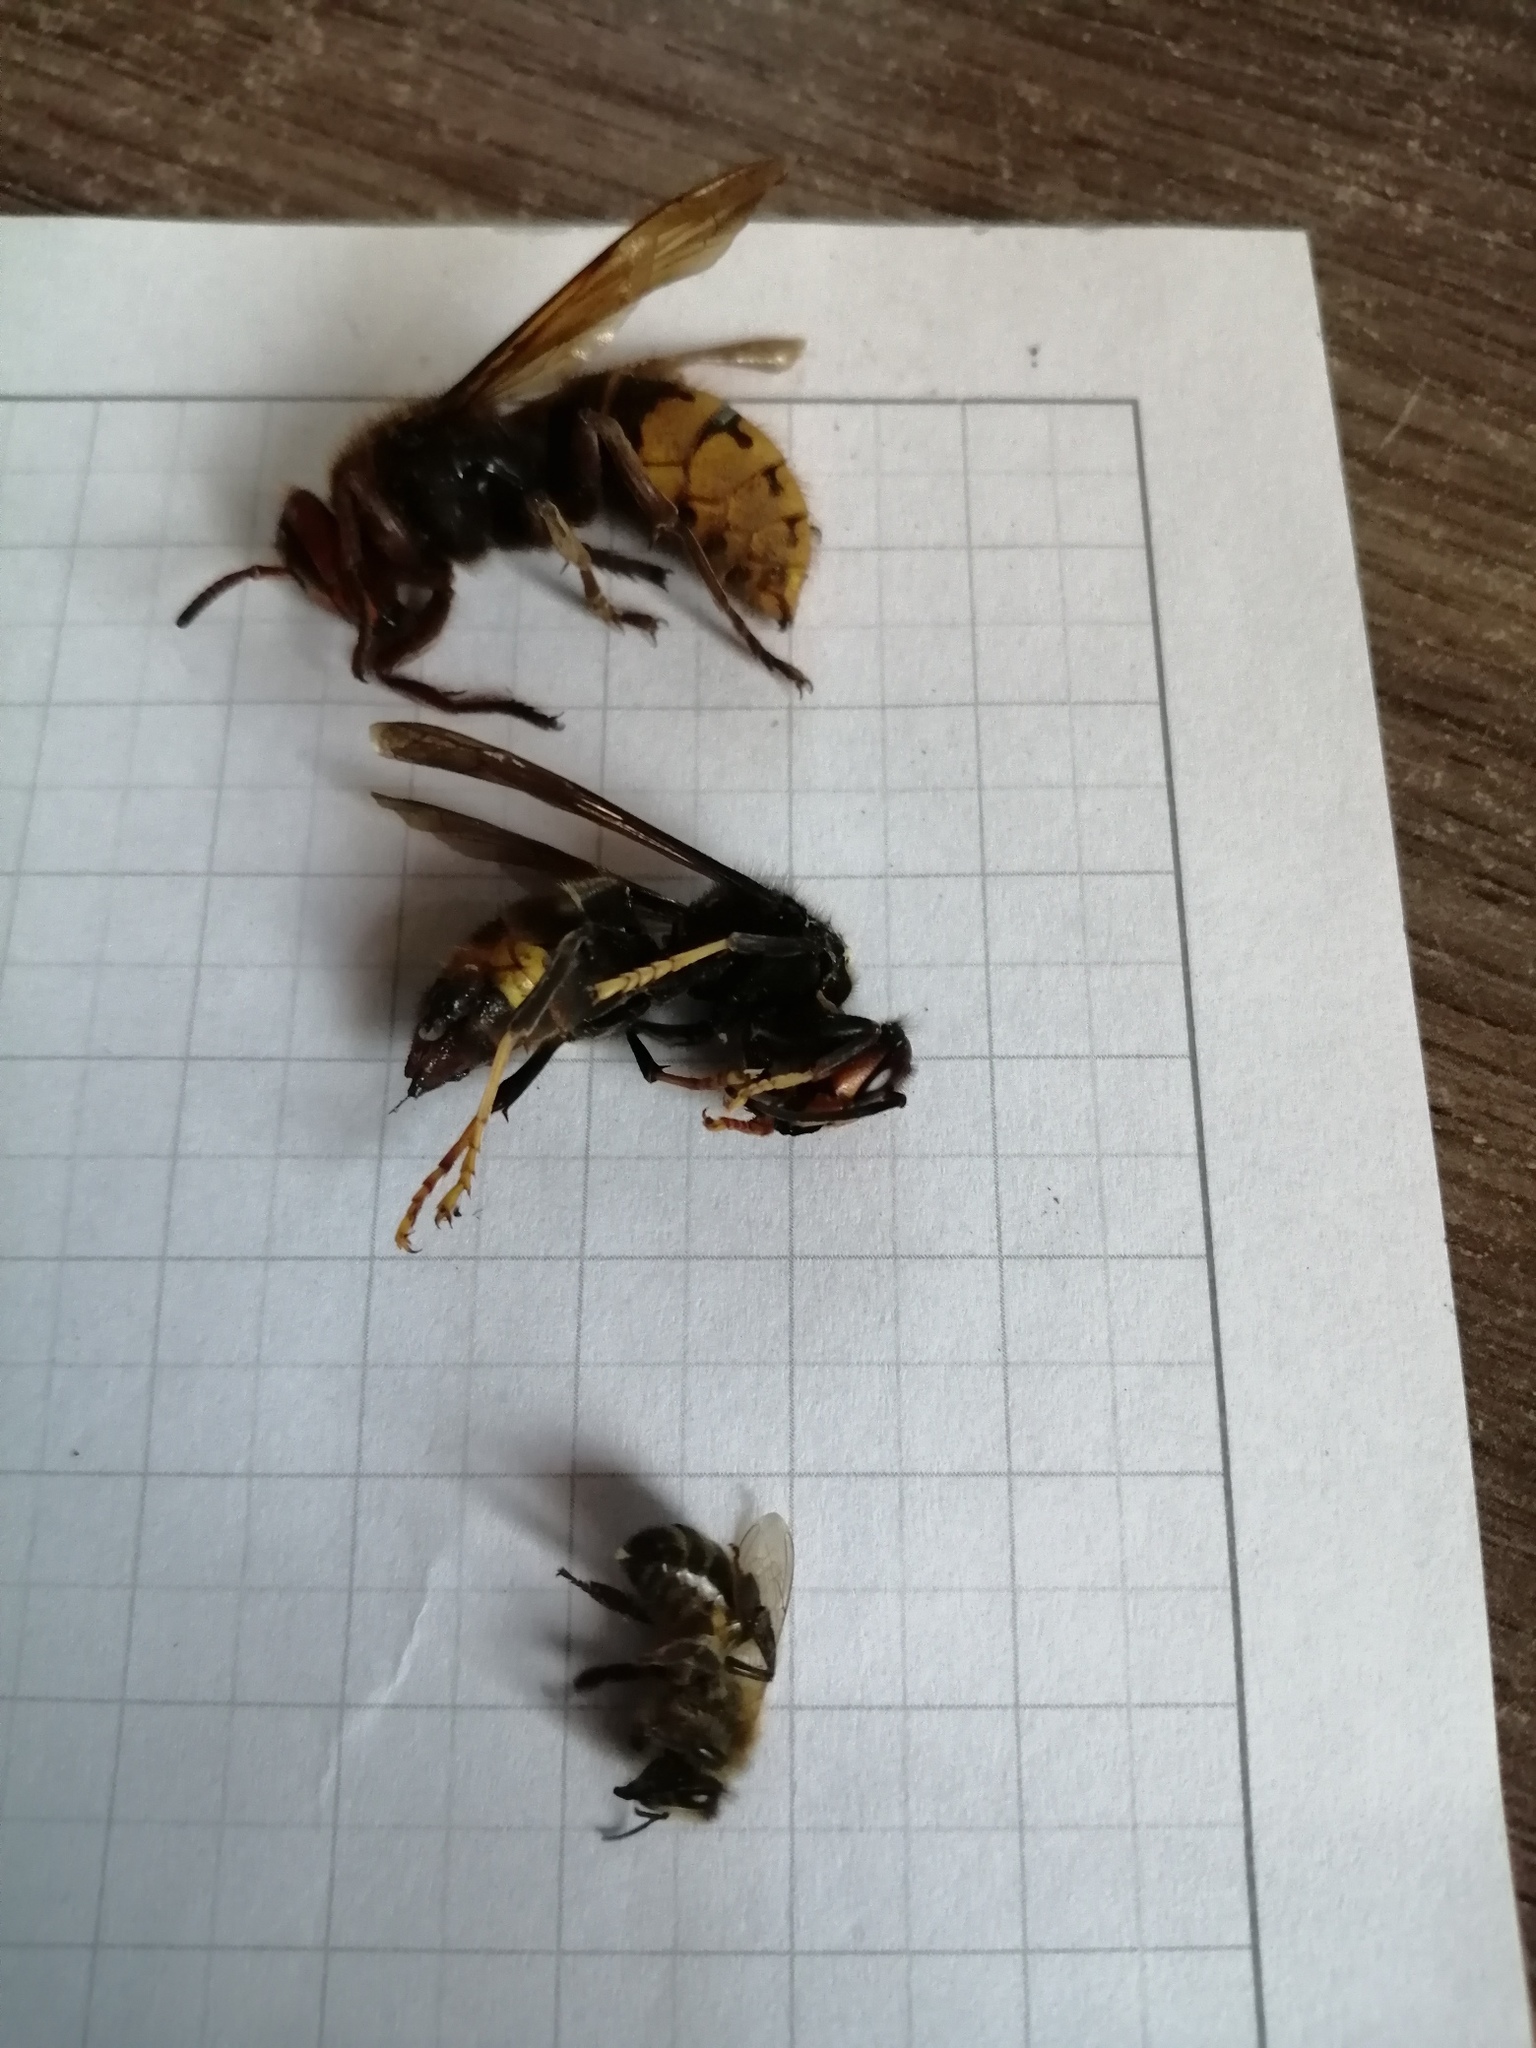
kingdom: Animalia
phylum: Arthropoda
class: Insecta
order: Hymenoptera
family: Vespidae
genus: Vespa
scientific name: Vespa velutina
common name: Asian hornet
